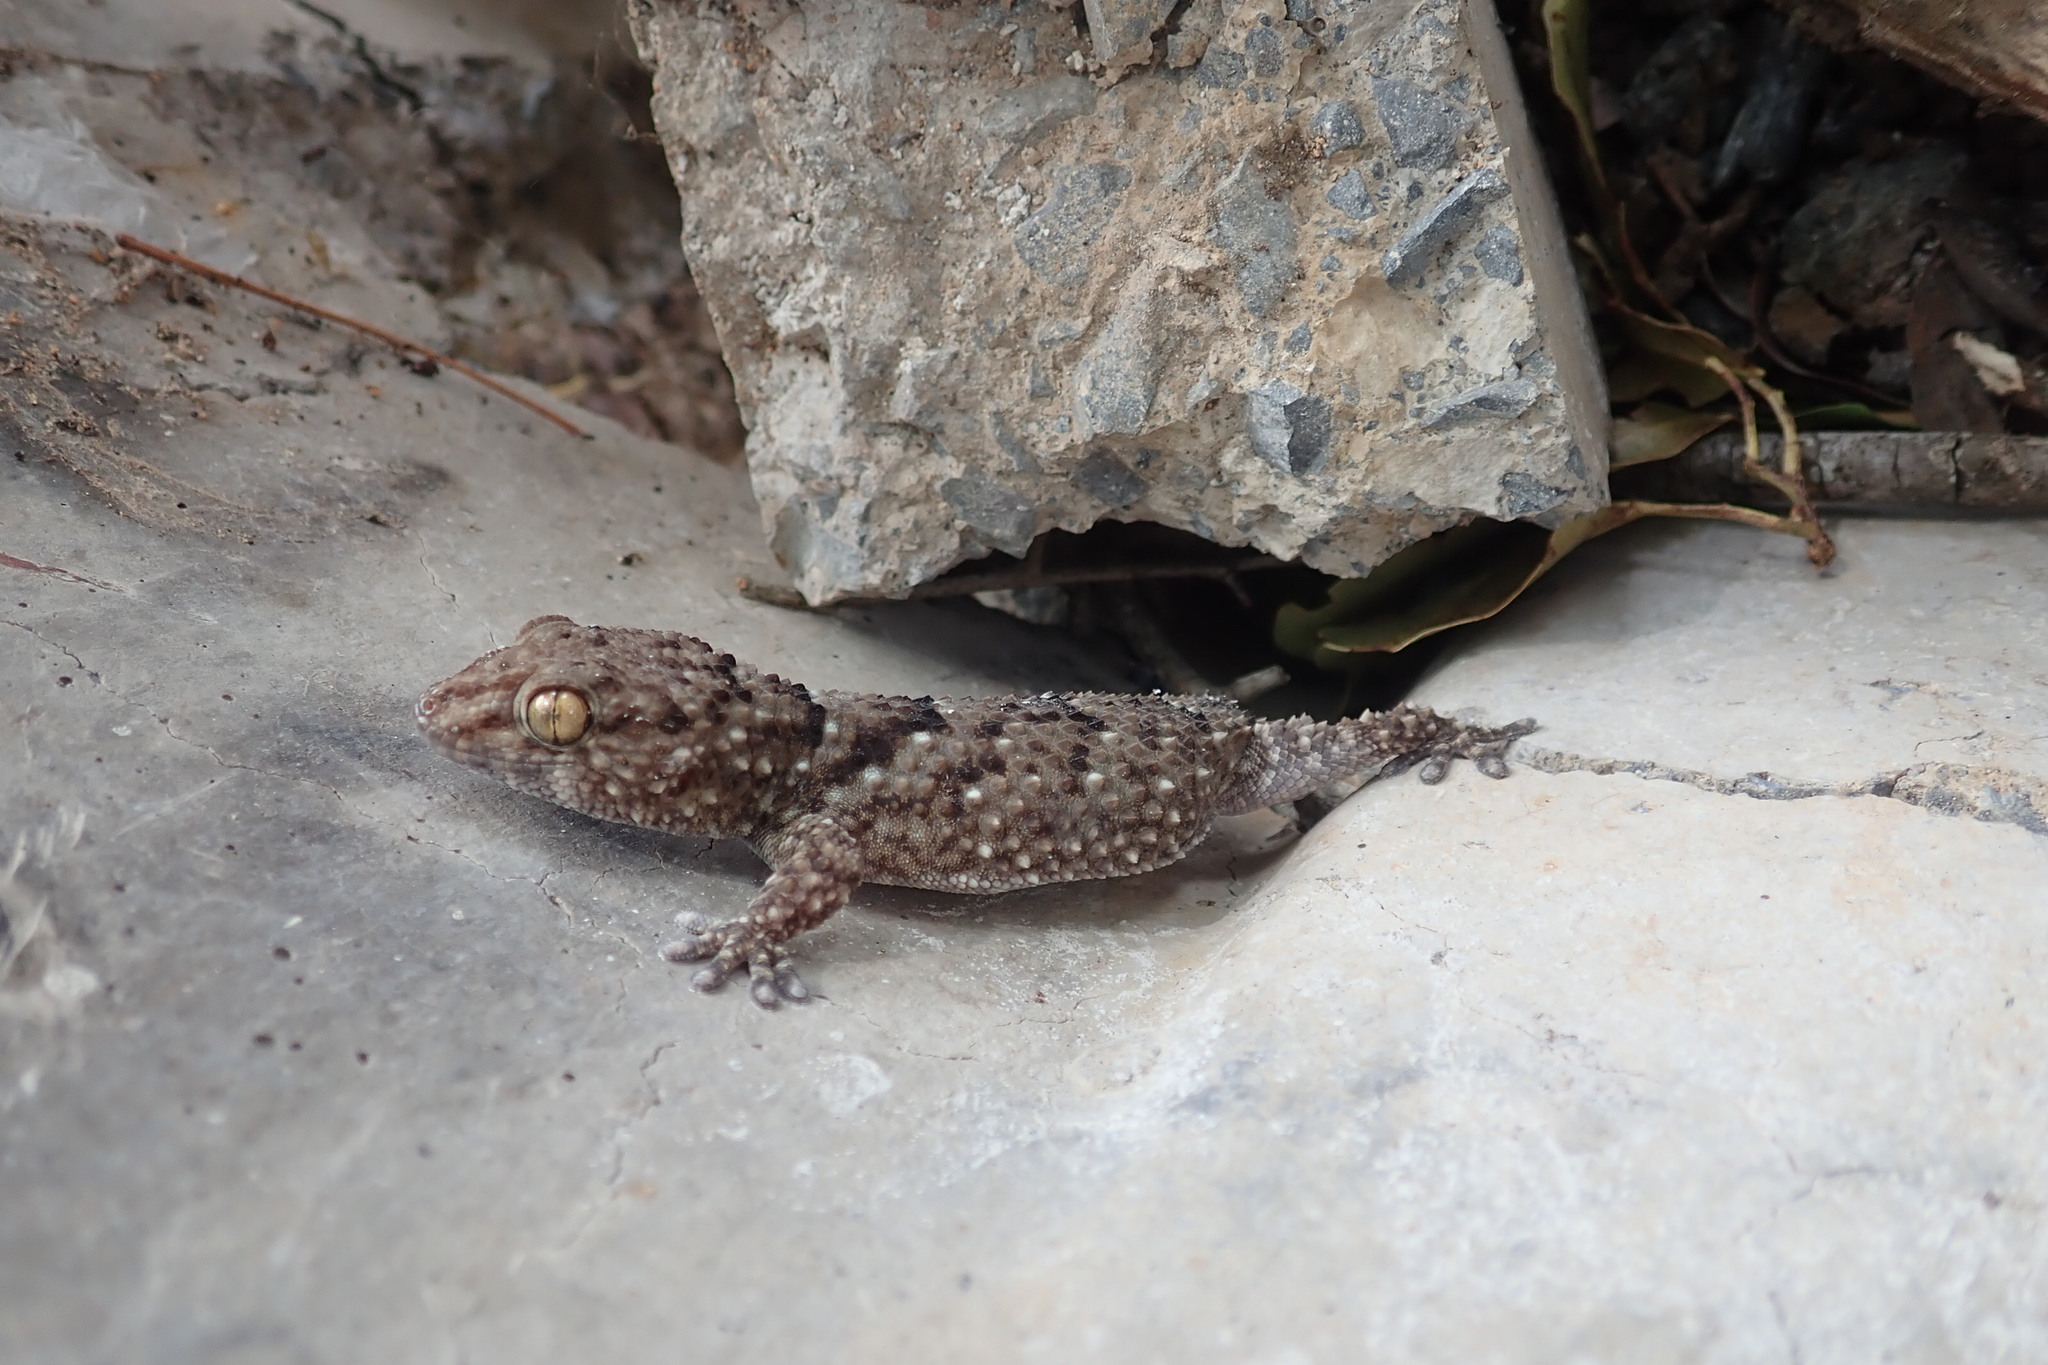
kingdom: Animalia
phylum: Chordata
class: Squamata
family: Gekkonidae
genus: Chondrodactylus
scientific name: Chondrodactylus turneri
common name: Turner’s gecko
